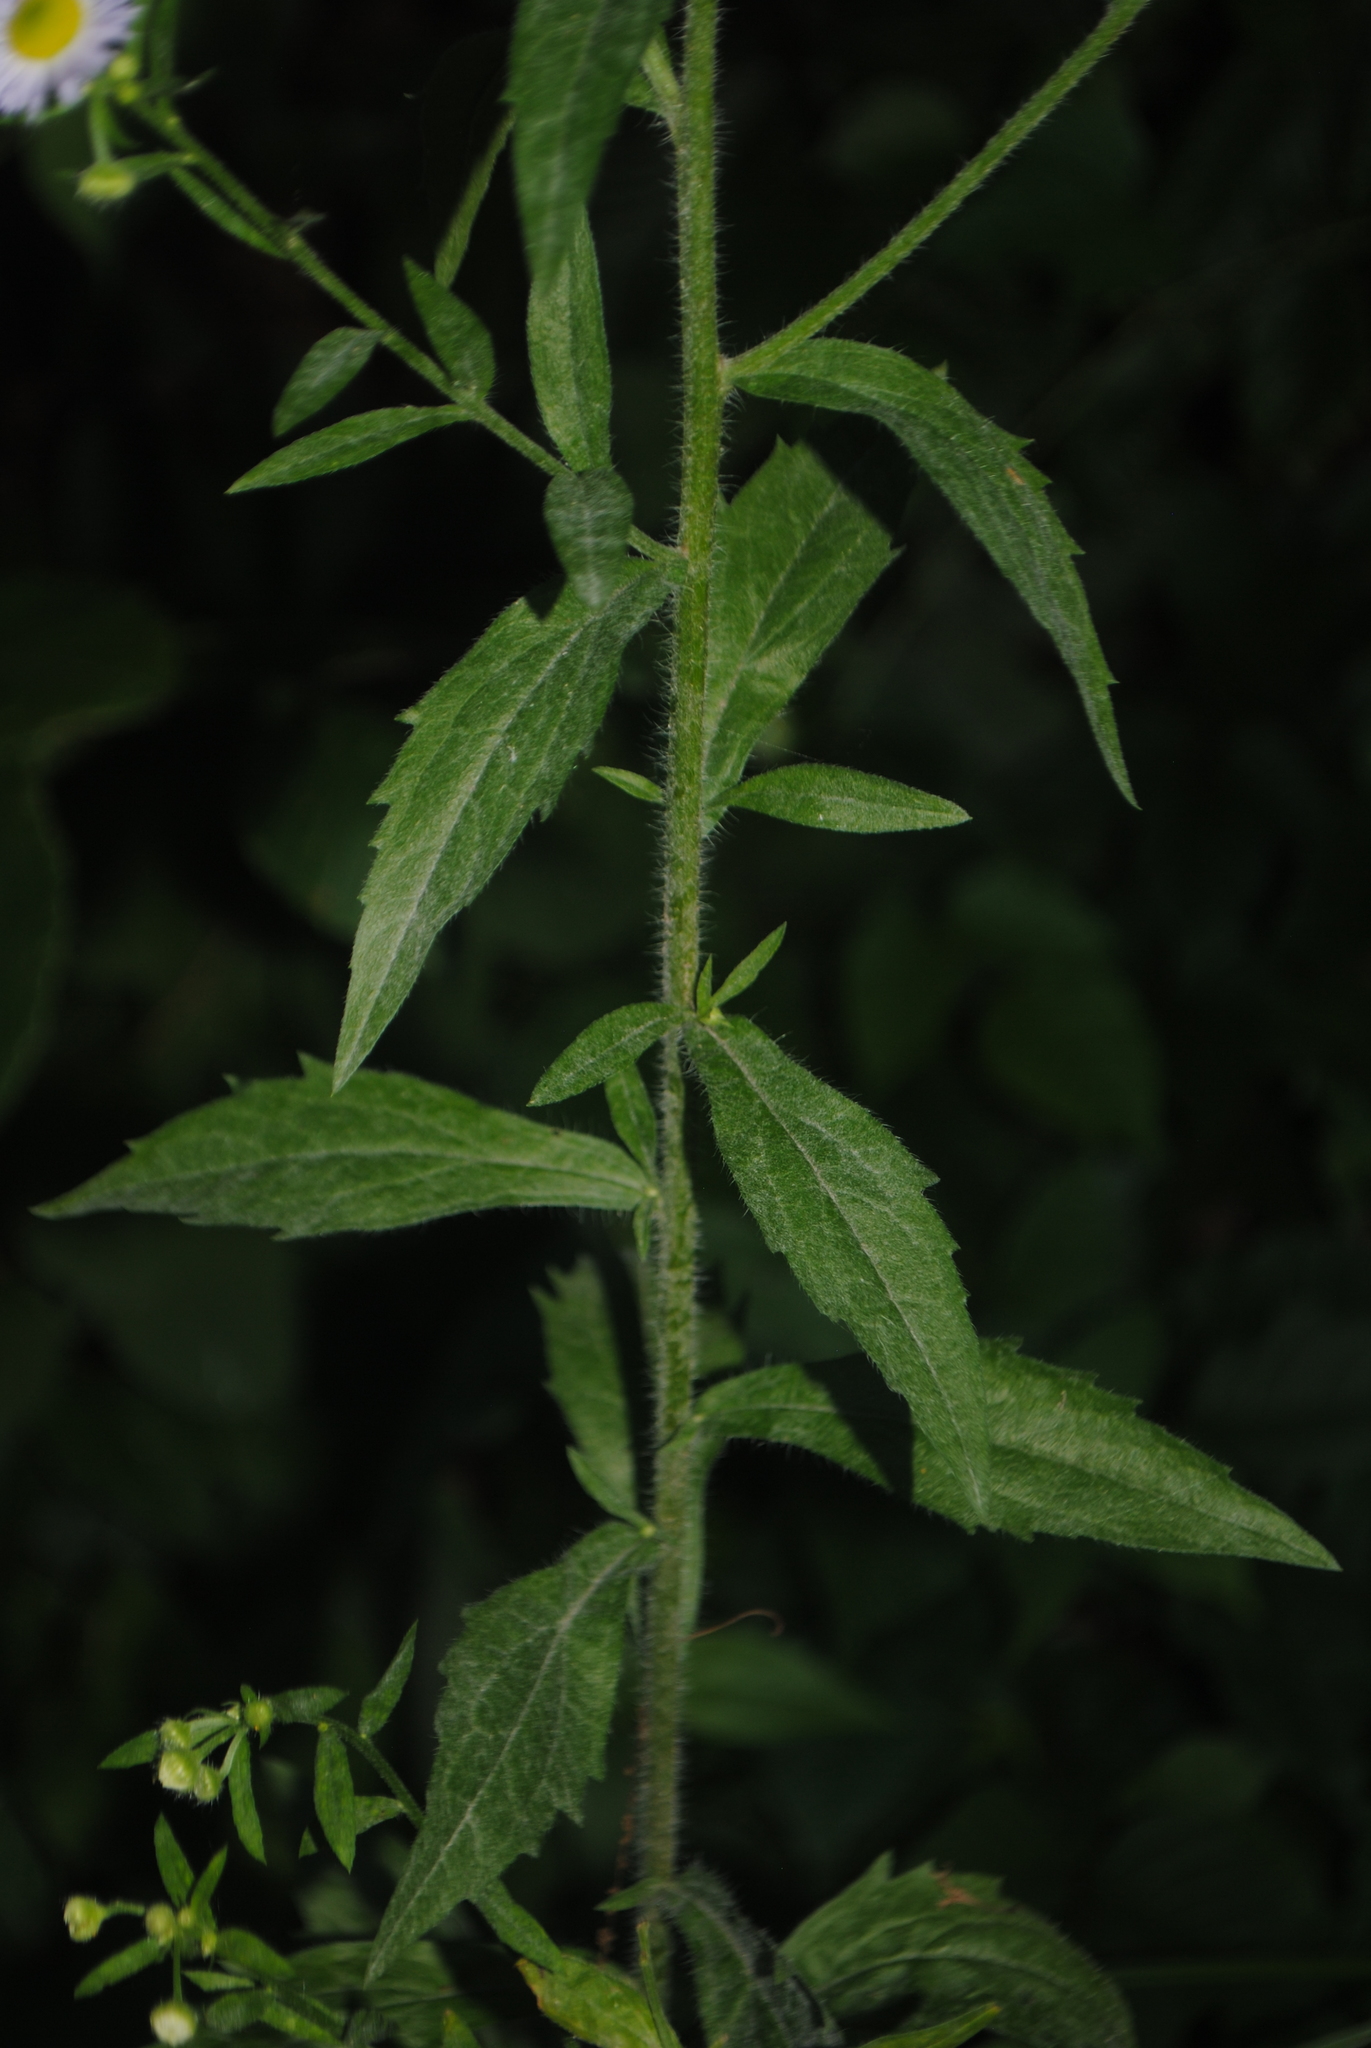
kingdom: Plantae
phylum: Tracheophyta
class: Magnoliopsida
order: Asterales
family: Asteraceae
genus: Erigeron
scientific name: Erigeron annuus
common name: Tall fleabane
